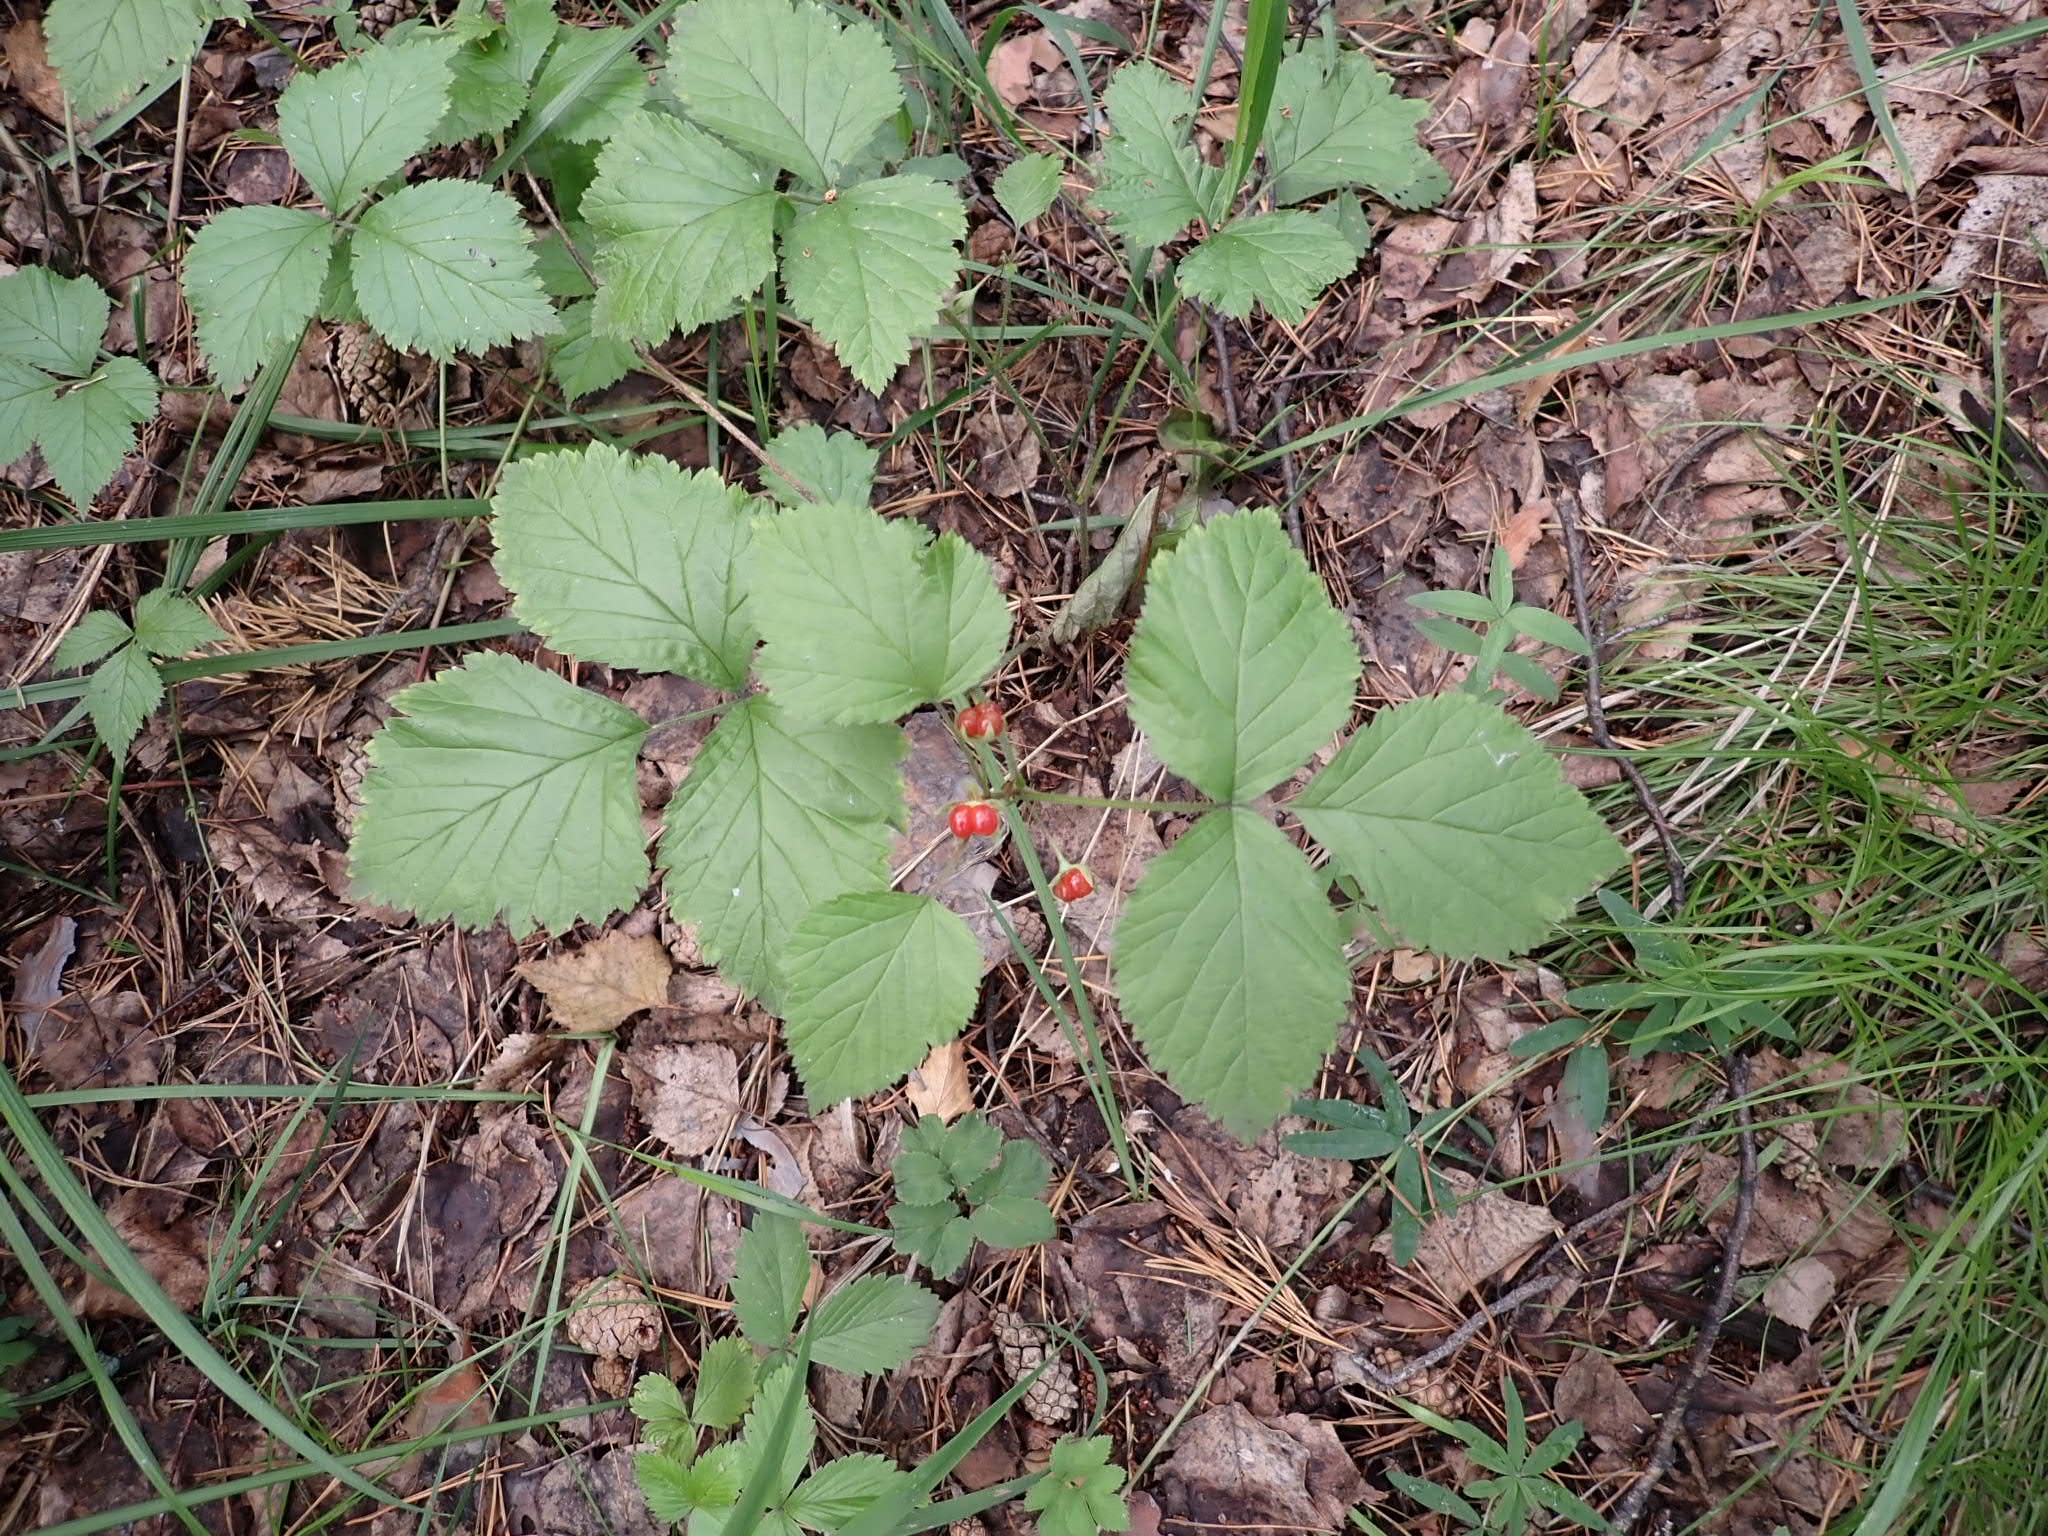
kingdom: Plantae
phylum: Tracheophyta
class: Magnoliopsida
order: Rosales
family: Rosaceae
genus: Rubus
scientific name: Rubus saxatilis
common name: Stone bramble
